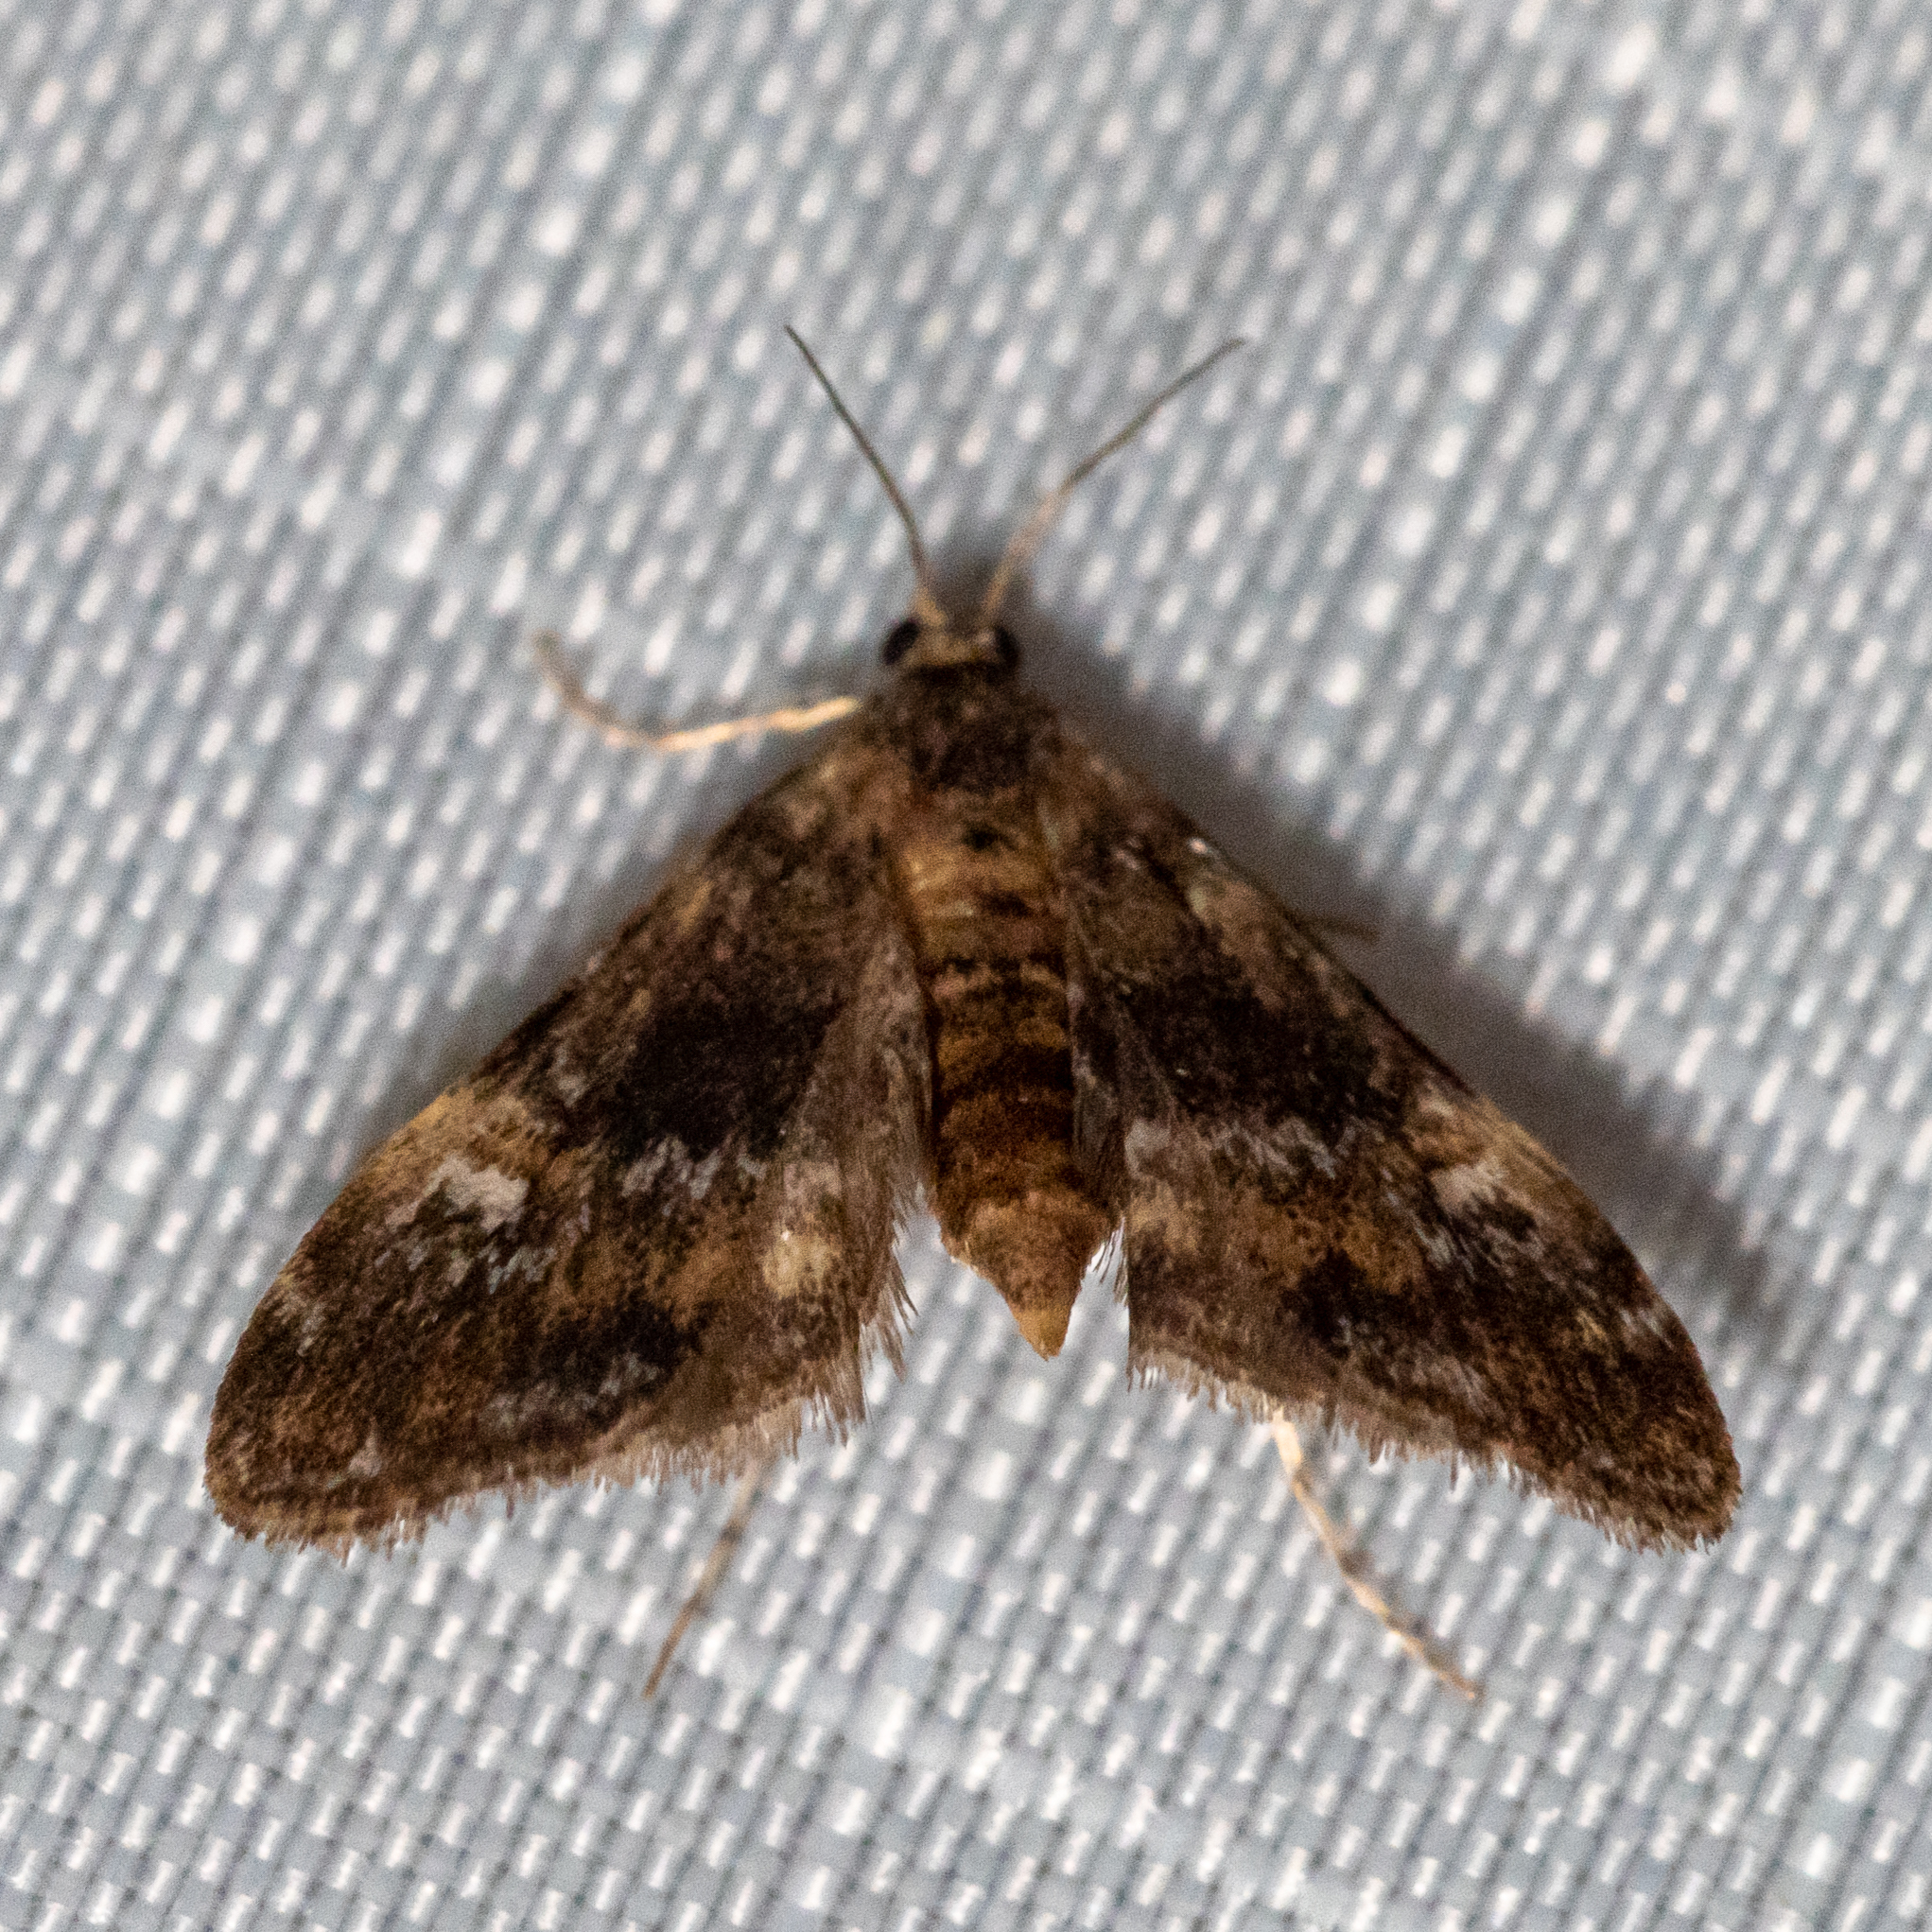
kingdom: Animalia
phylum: Arthropoda
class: Insecta
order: Lepidoptera
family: Crambidae
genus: Elophila
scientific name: Elophila obliteralis
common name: Waterlily leafcutter moth
